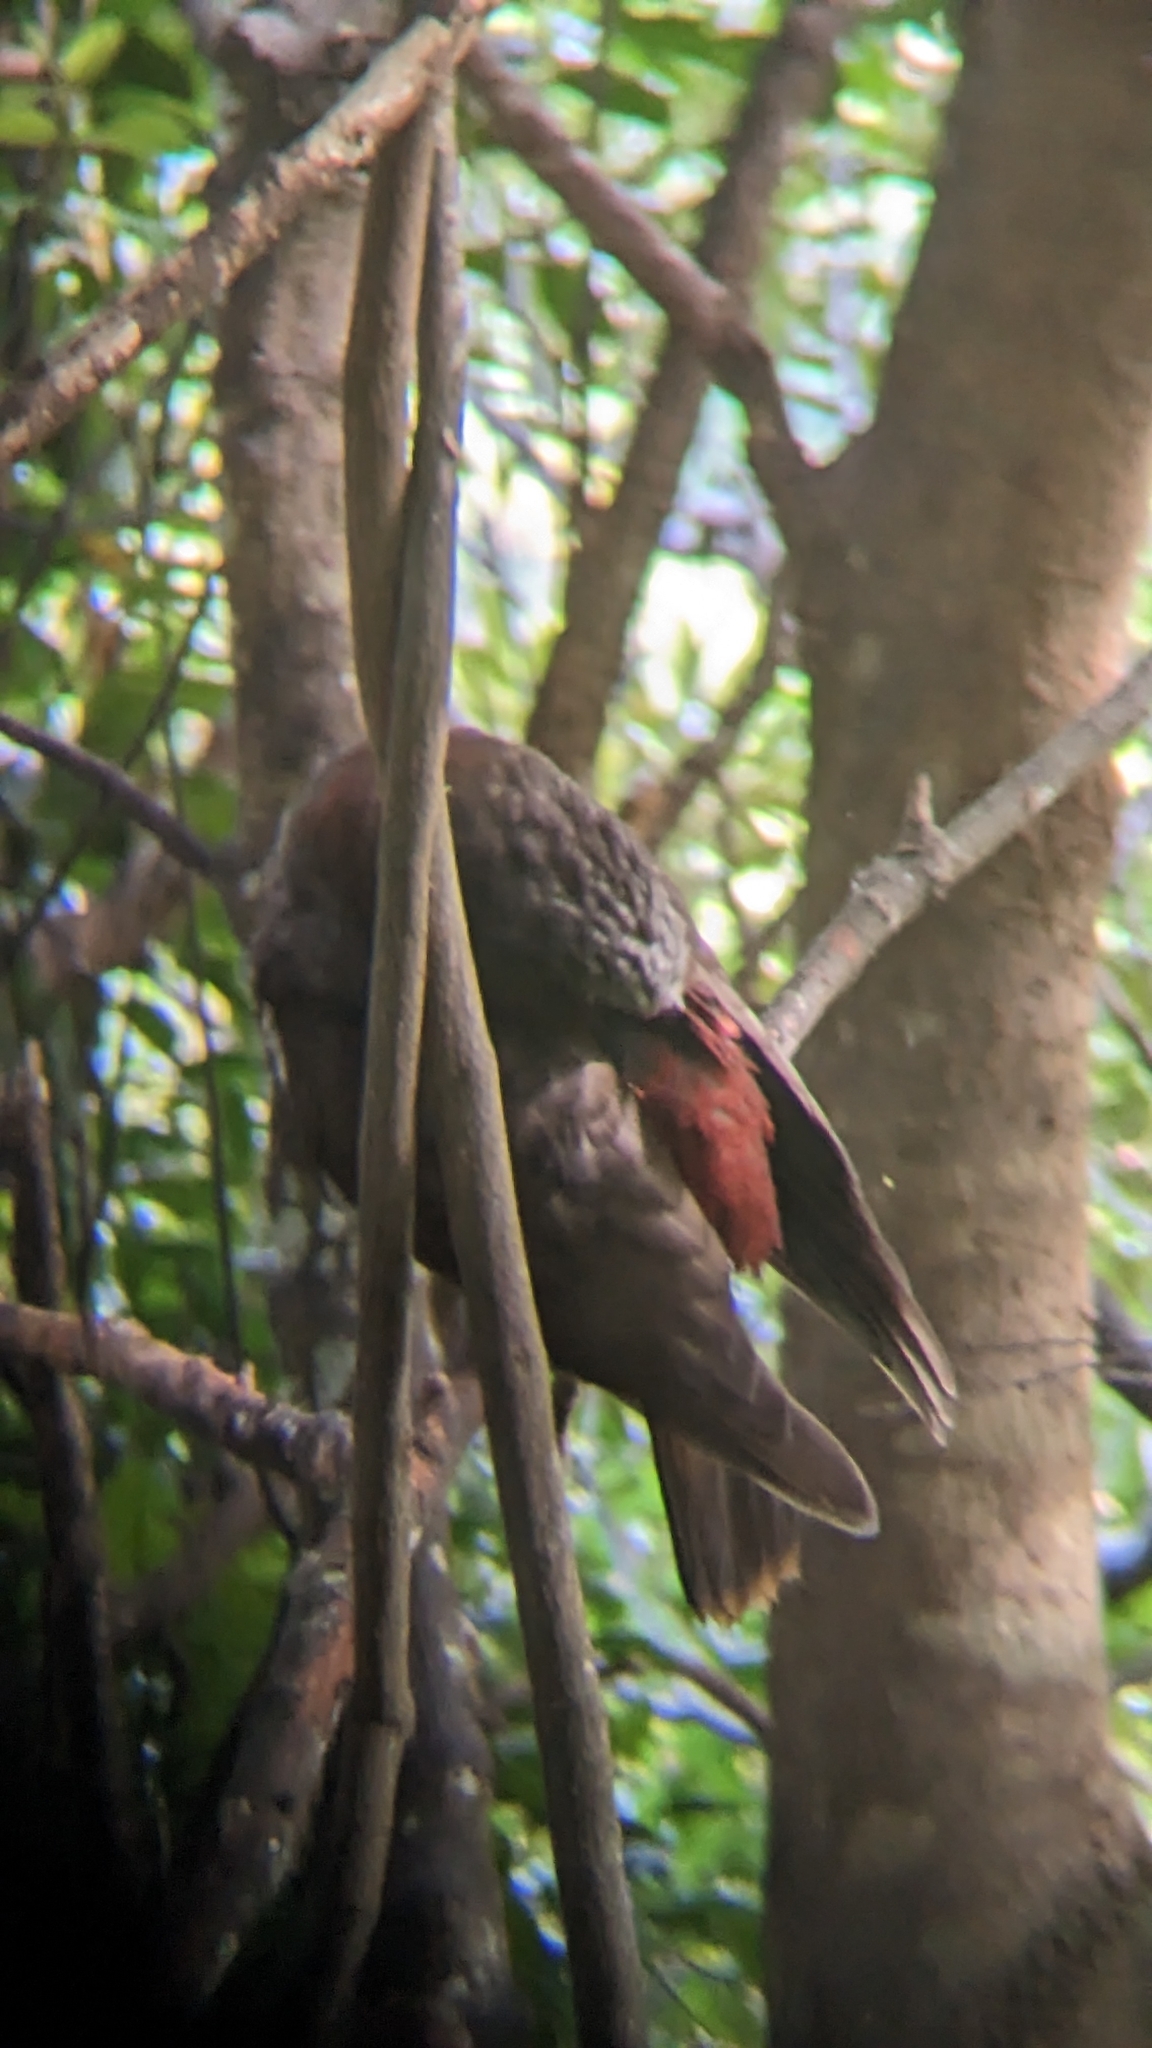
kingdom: Animalia
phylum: Chordata
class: Aves
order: Psittaciformes
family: Psittacidae
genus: Nestor
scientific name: Nestor meridionalis
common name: New zealand kaka
